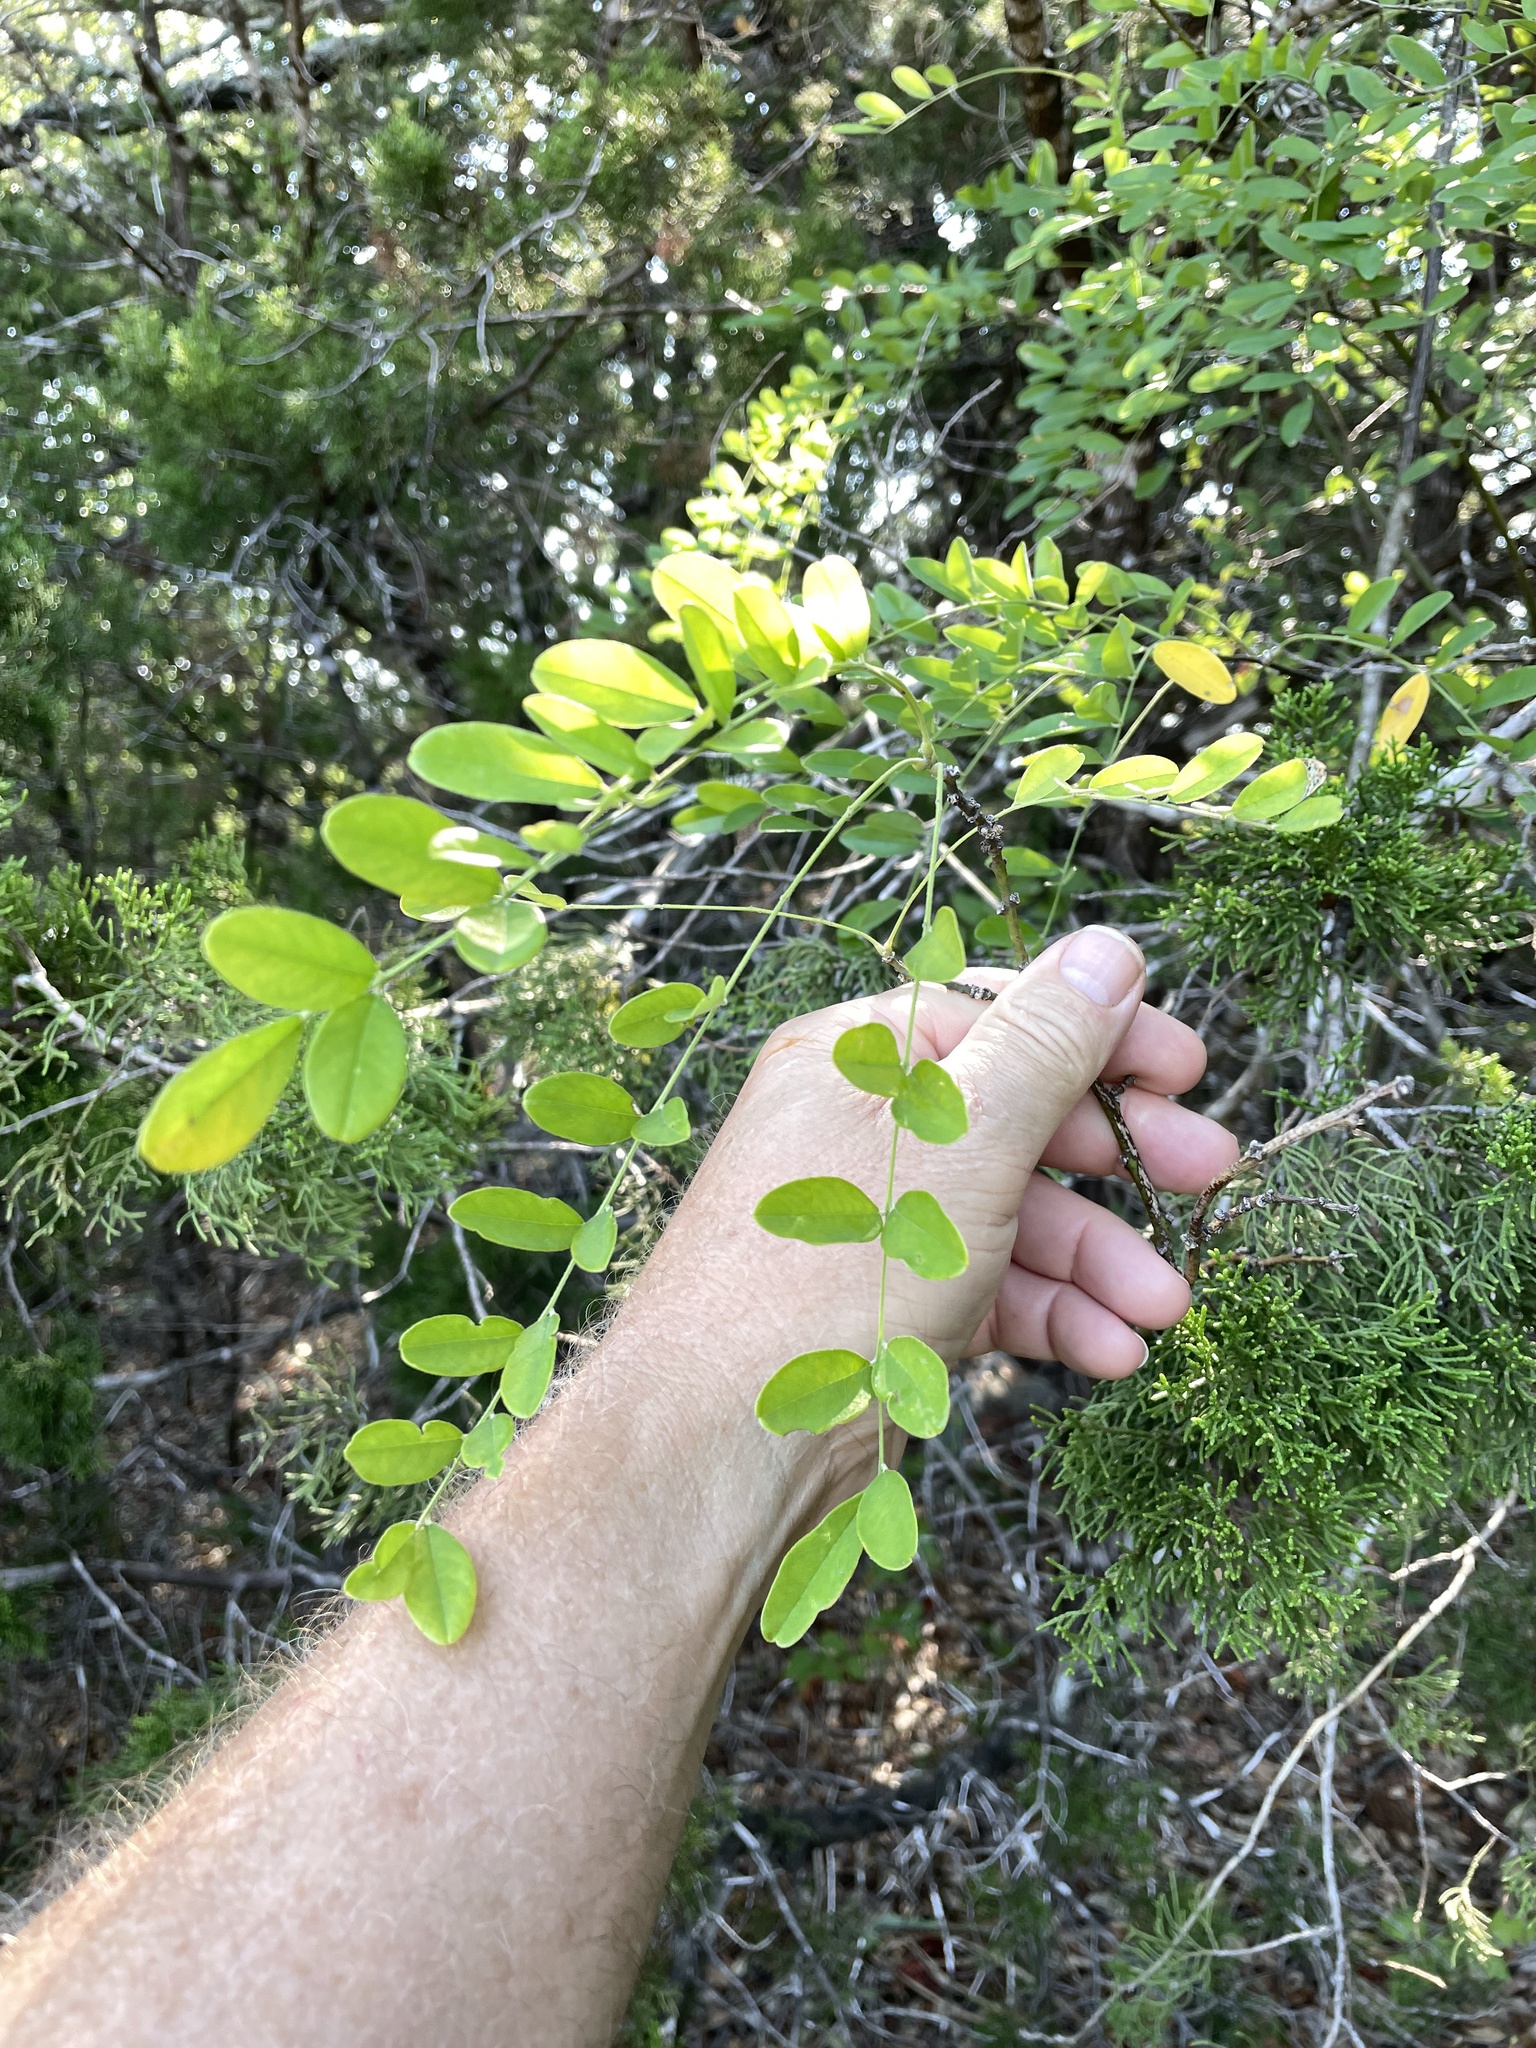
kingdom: Plantae
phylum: Tracheophyta
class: Magnoliopsida
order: Fabales
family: Fabaceae
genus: Styphnolobium
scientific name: Styphnolobium affine
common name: Texas sophora
